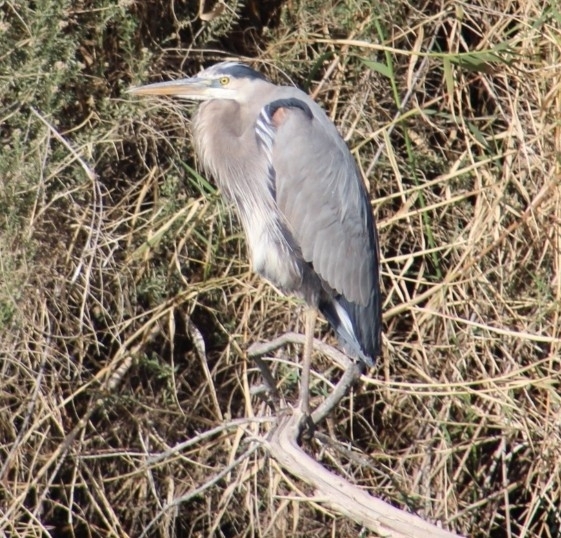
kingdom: Animalia
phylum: Chordata
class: Aves
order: Pelecaniformes
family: Ardeidae
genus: Ardea
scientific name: Ardea herodias
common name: Great blue heron
